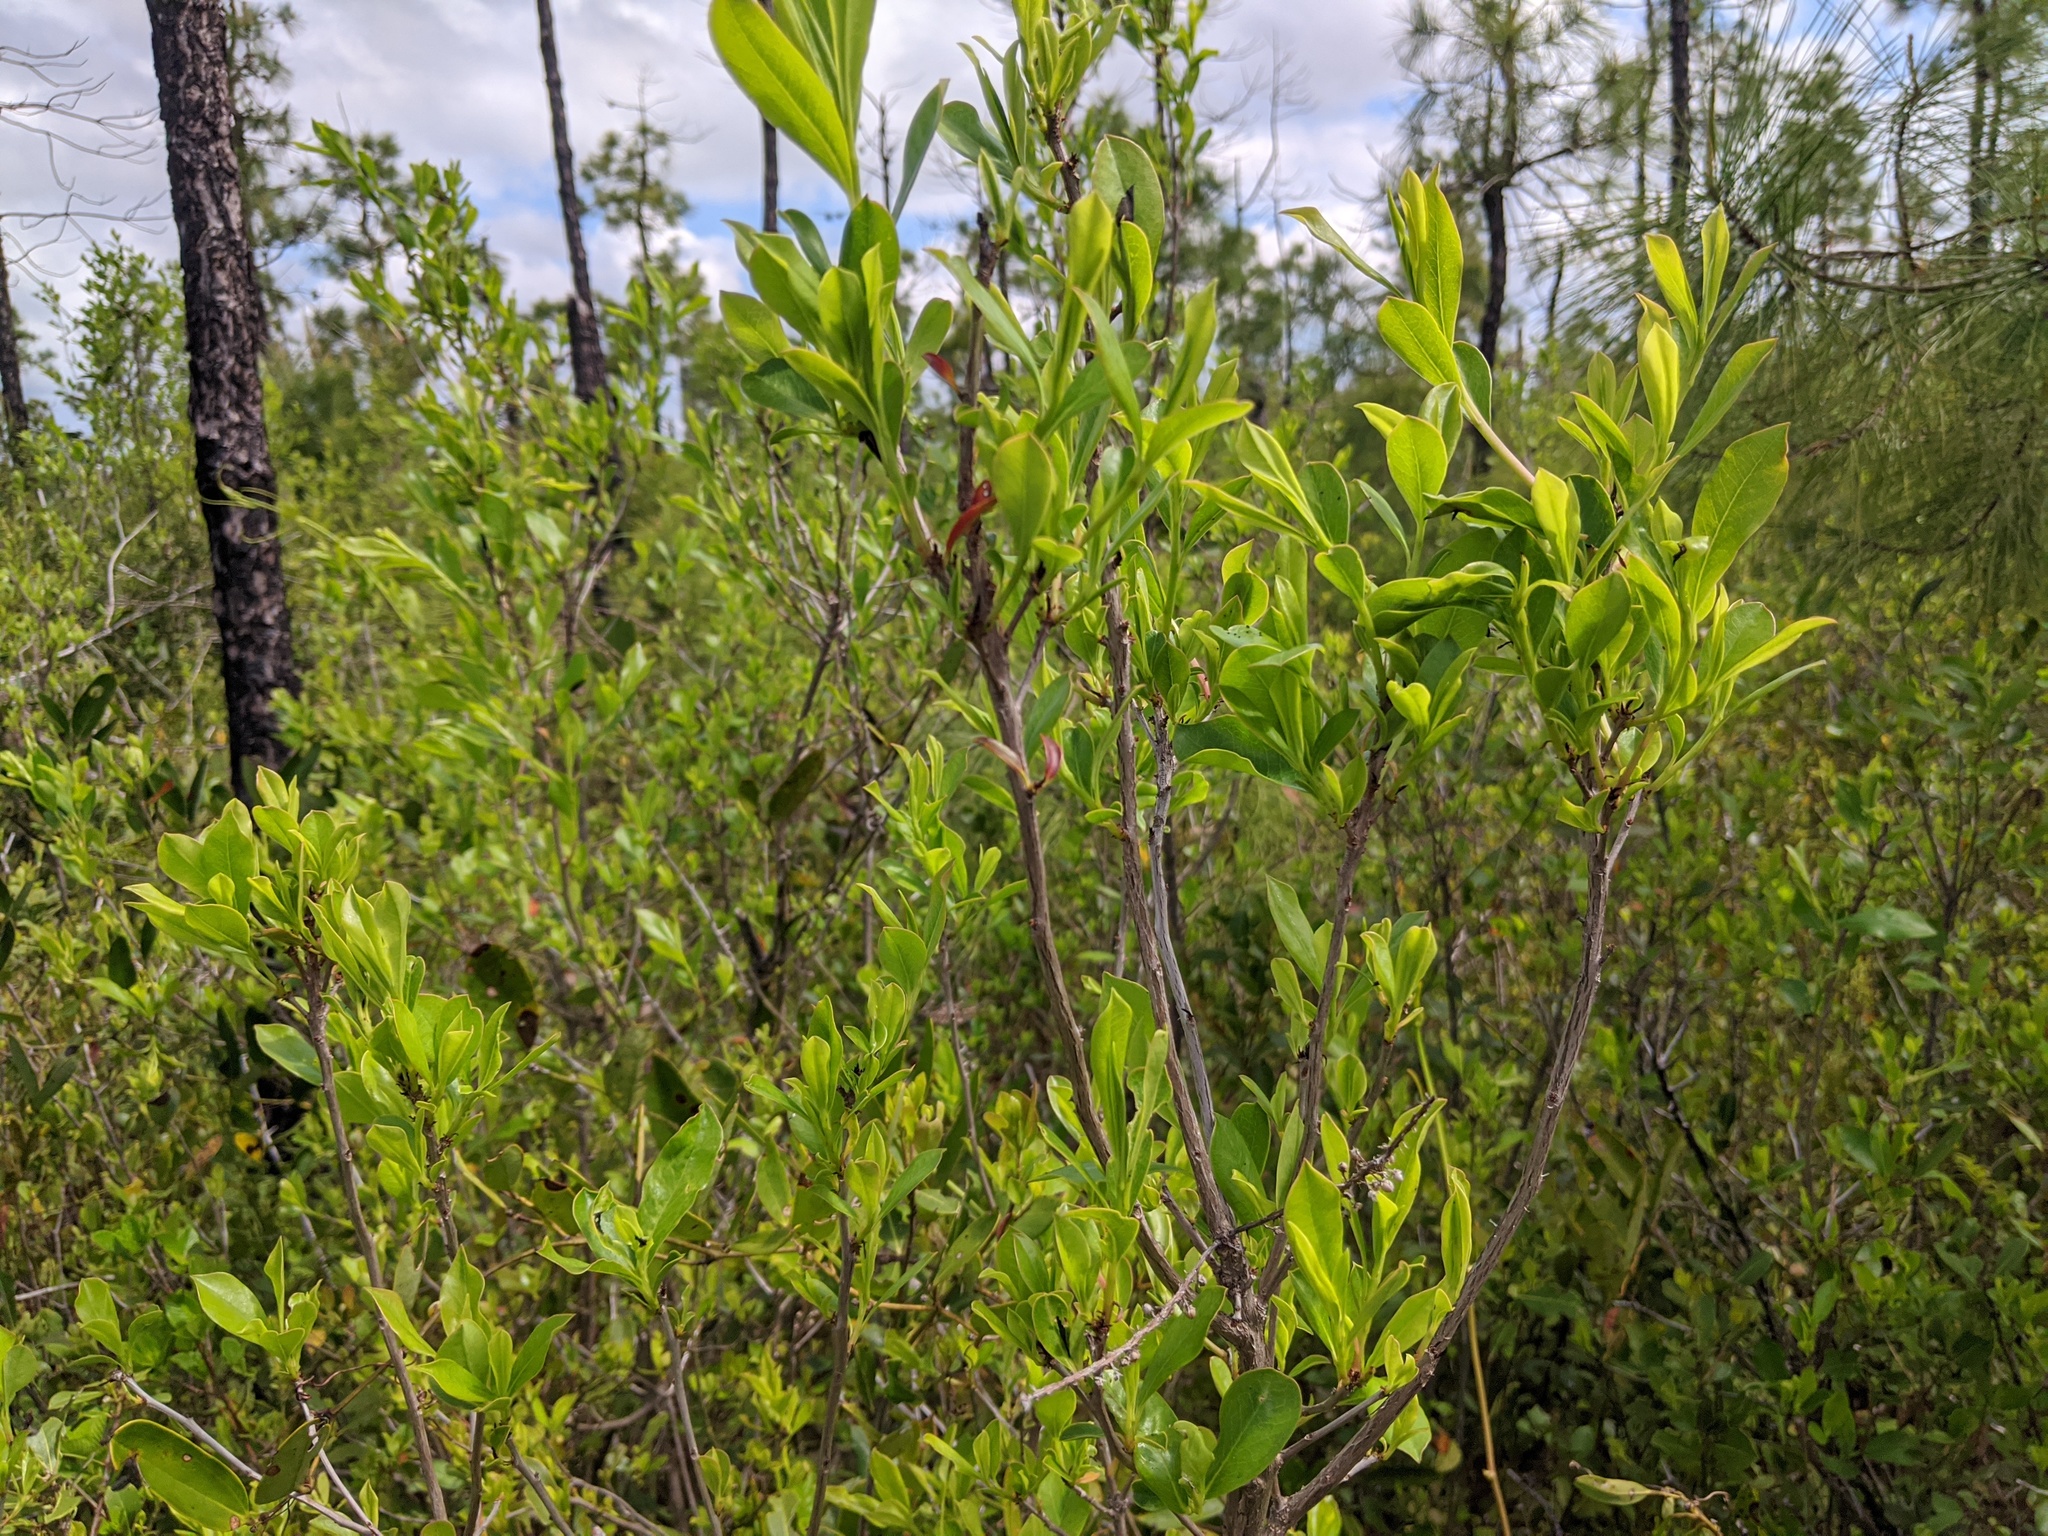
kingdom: Plantae
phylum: Tracheophyta
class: Magnoliopsida
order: Ericales
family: Cyrillaceae
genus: Cyrilla
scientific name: Cyrilla racemiflora
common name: Black titi
